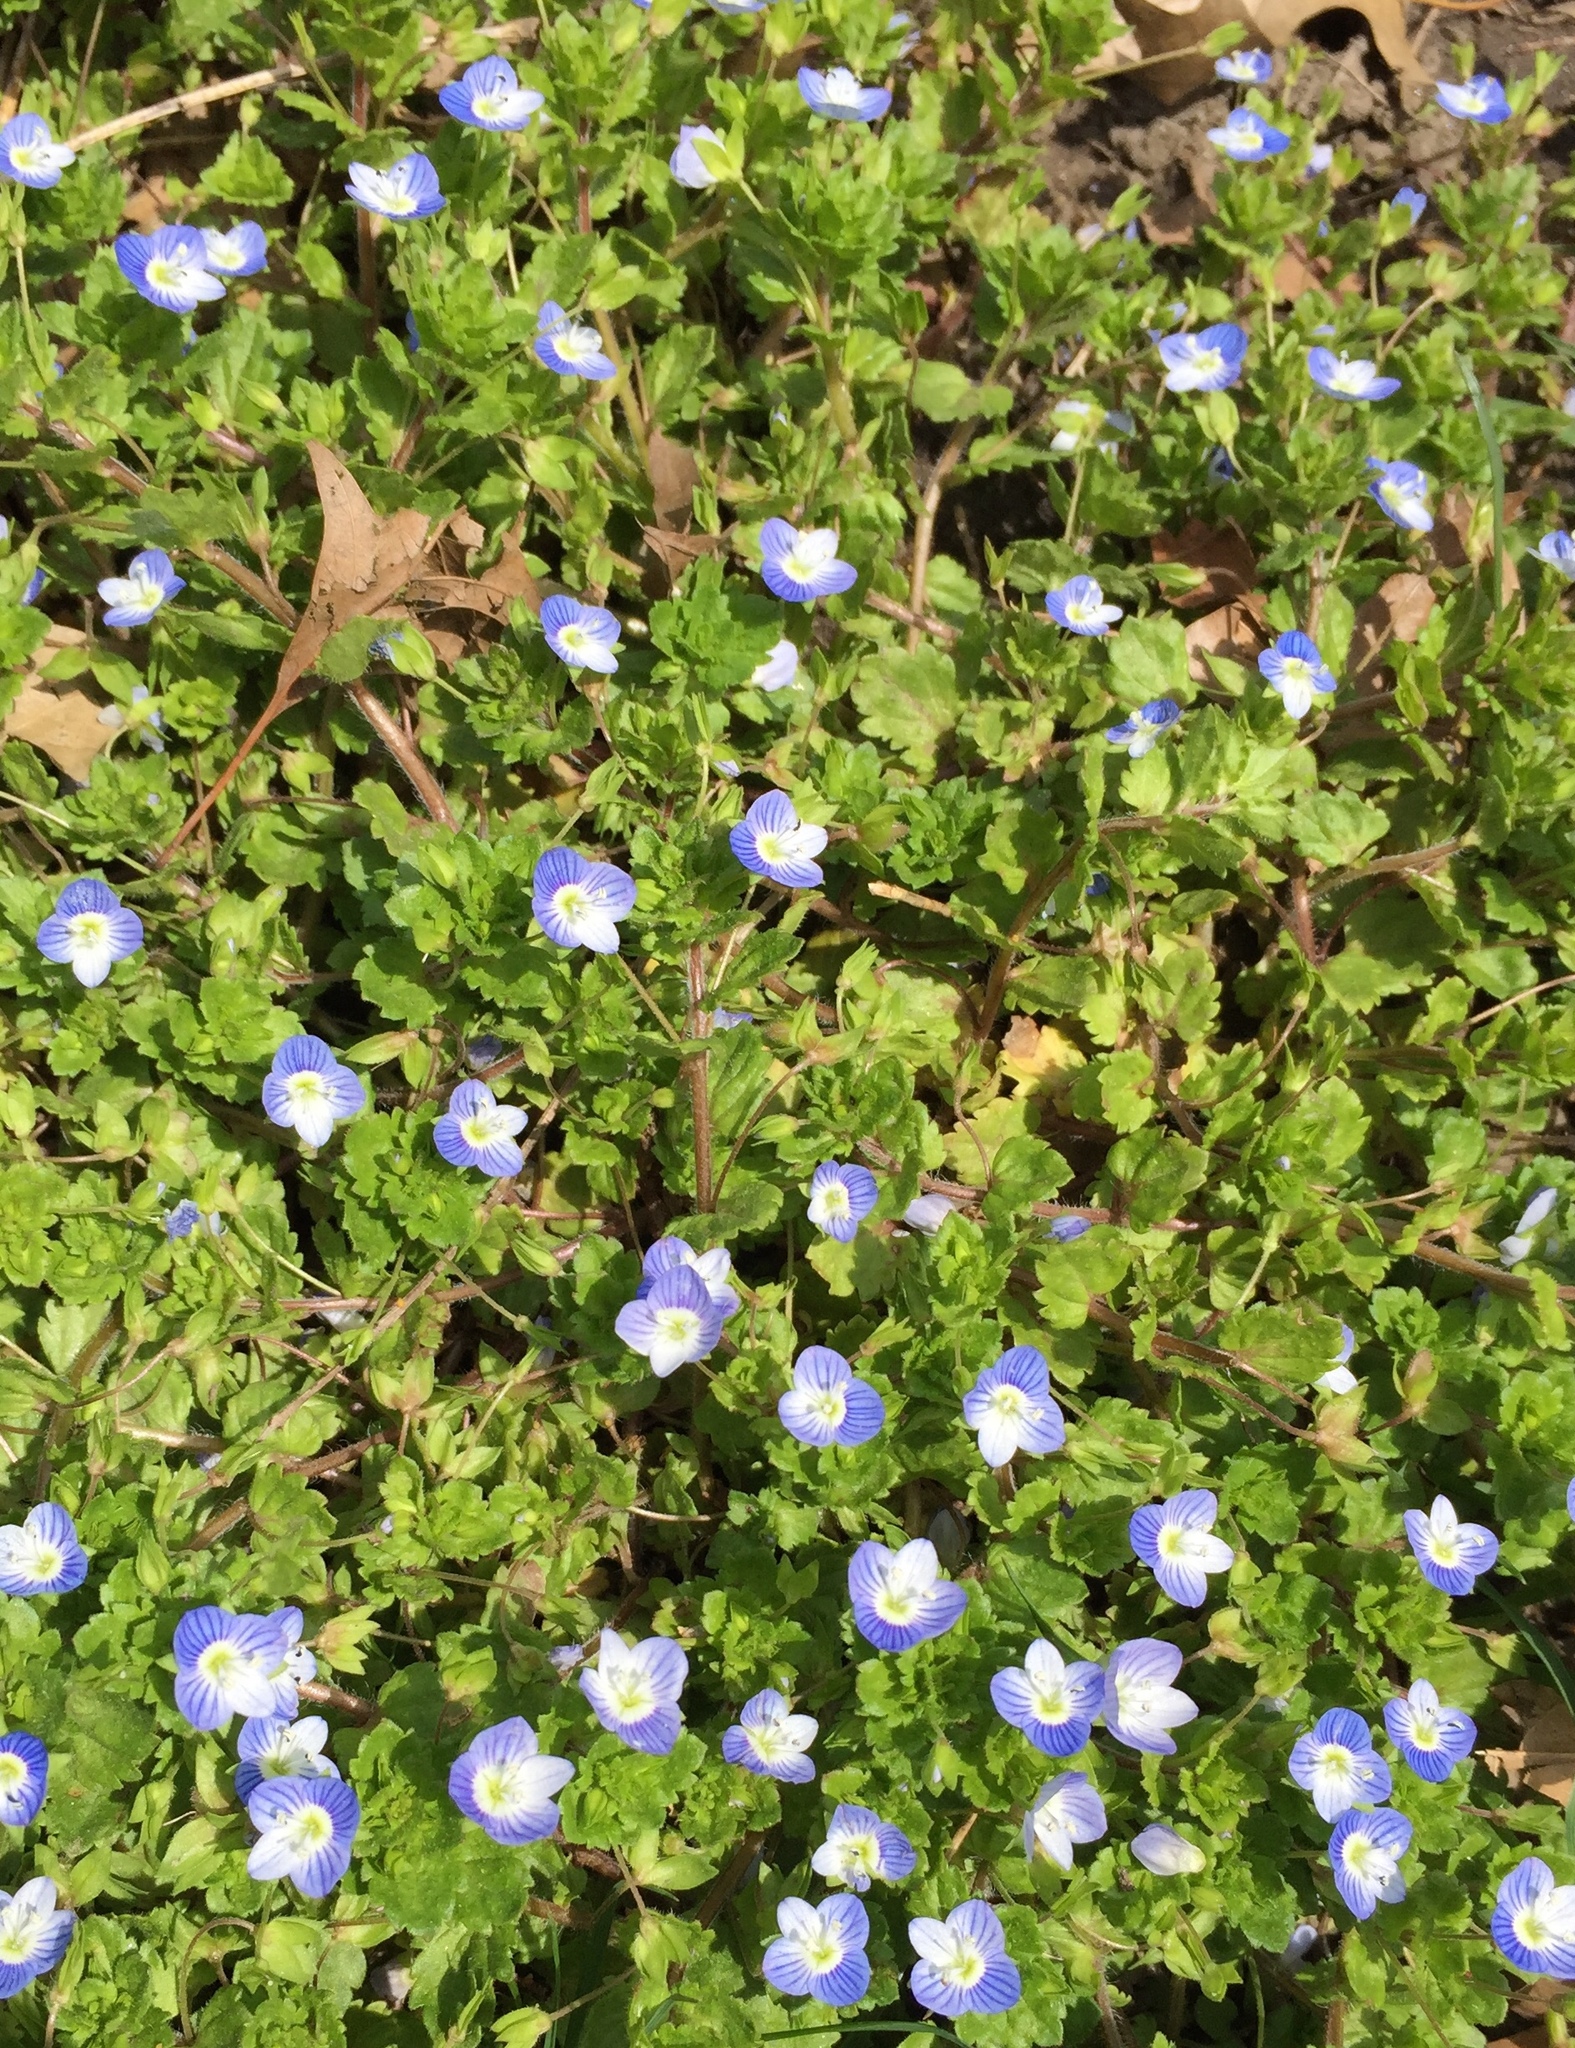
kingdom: Plantae
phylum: Tracheophyta
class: Magnoliopsida
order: Lamiales
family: Plantaginaceae
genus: Veronica
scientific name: Veronica persica
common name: Common field-speedwell
